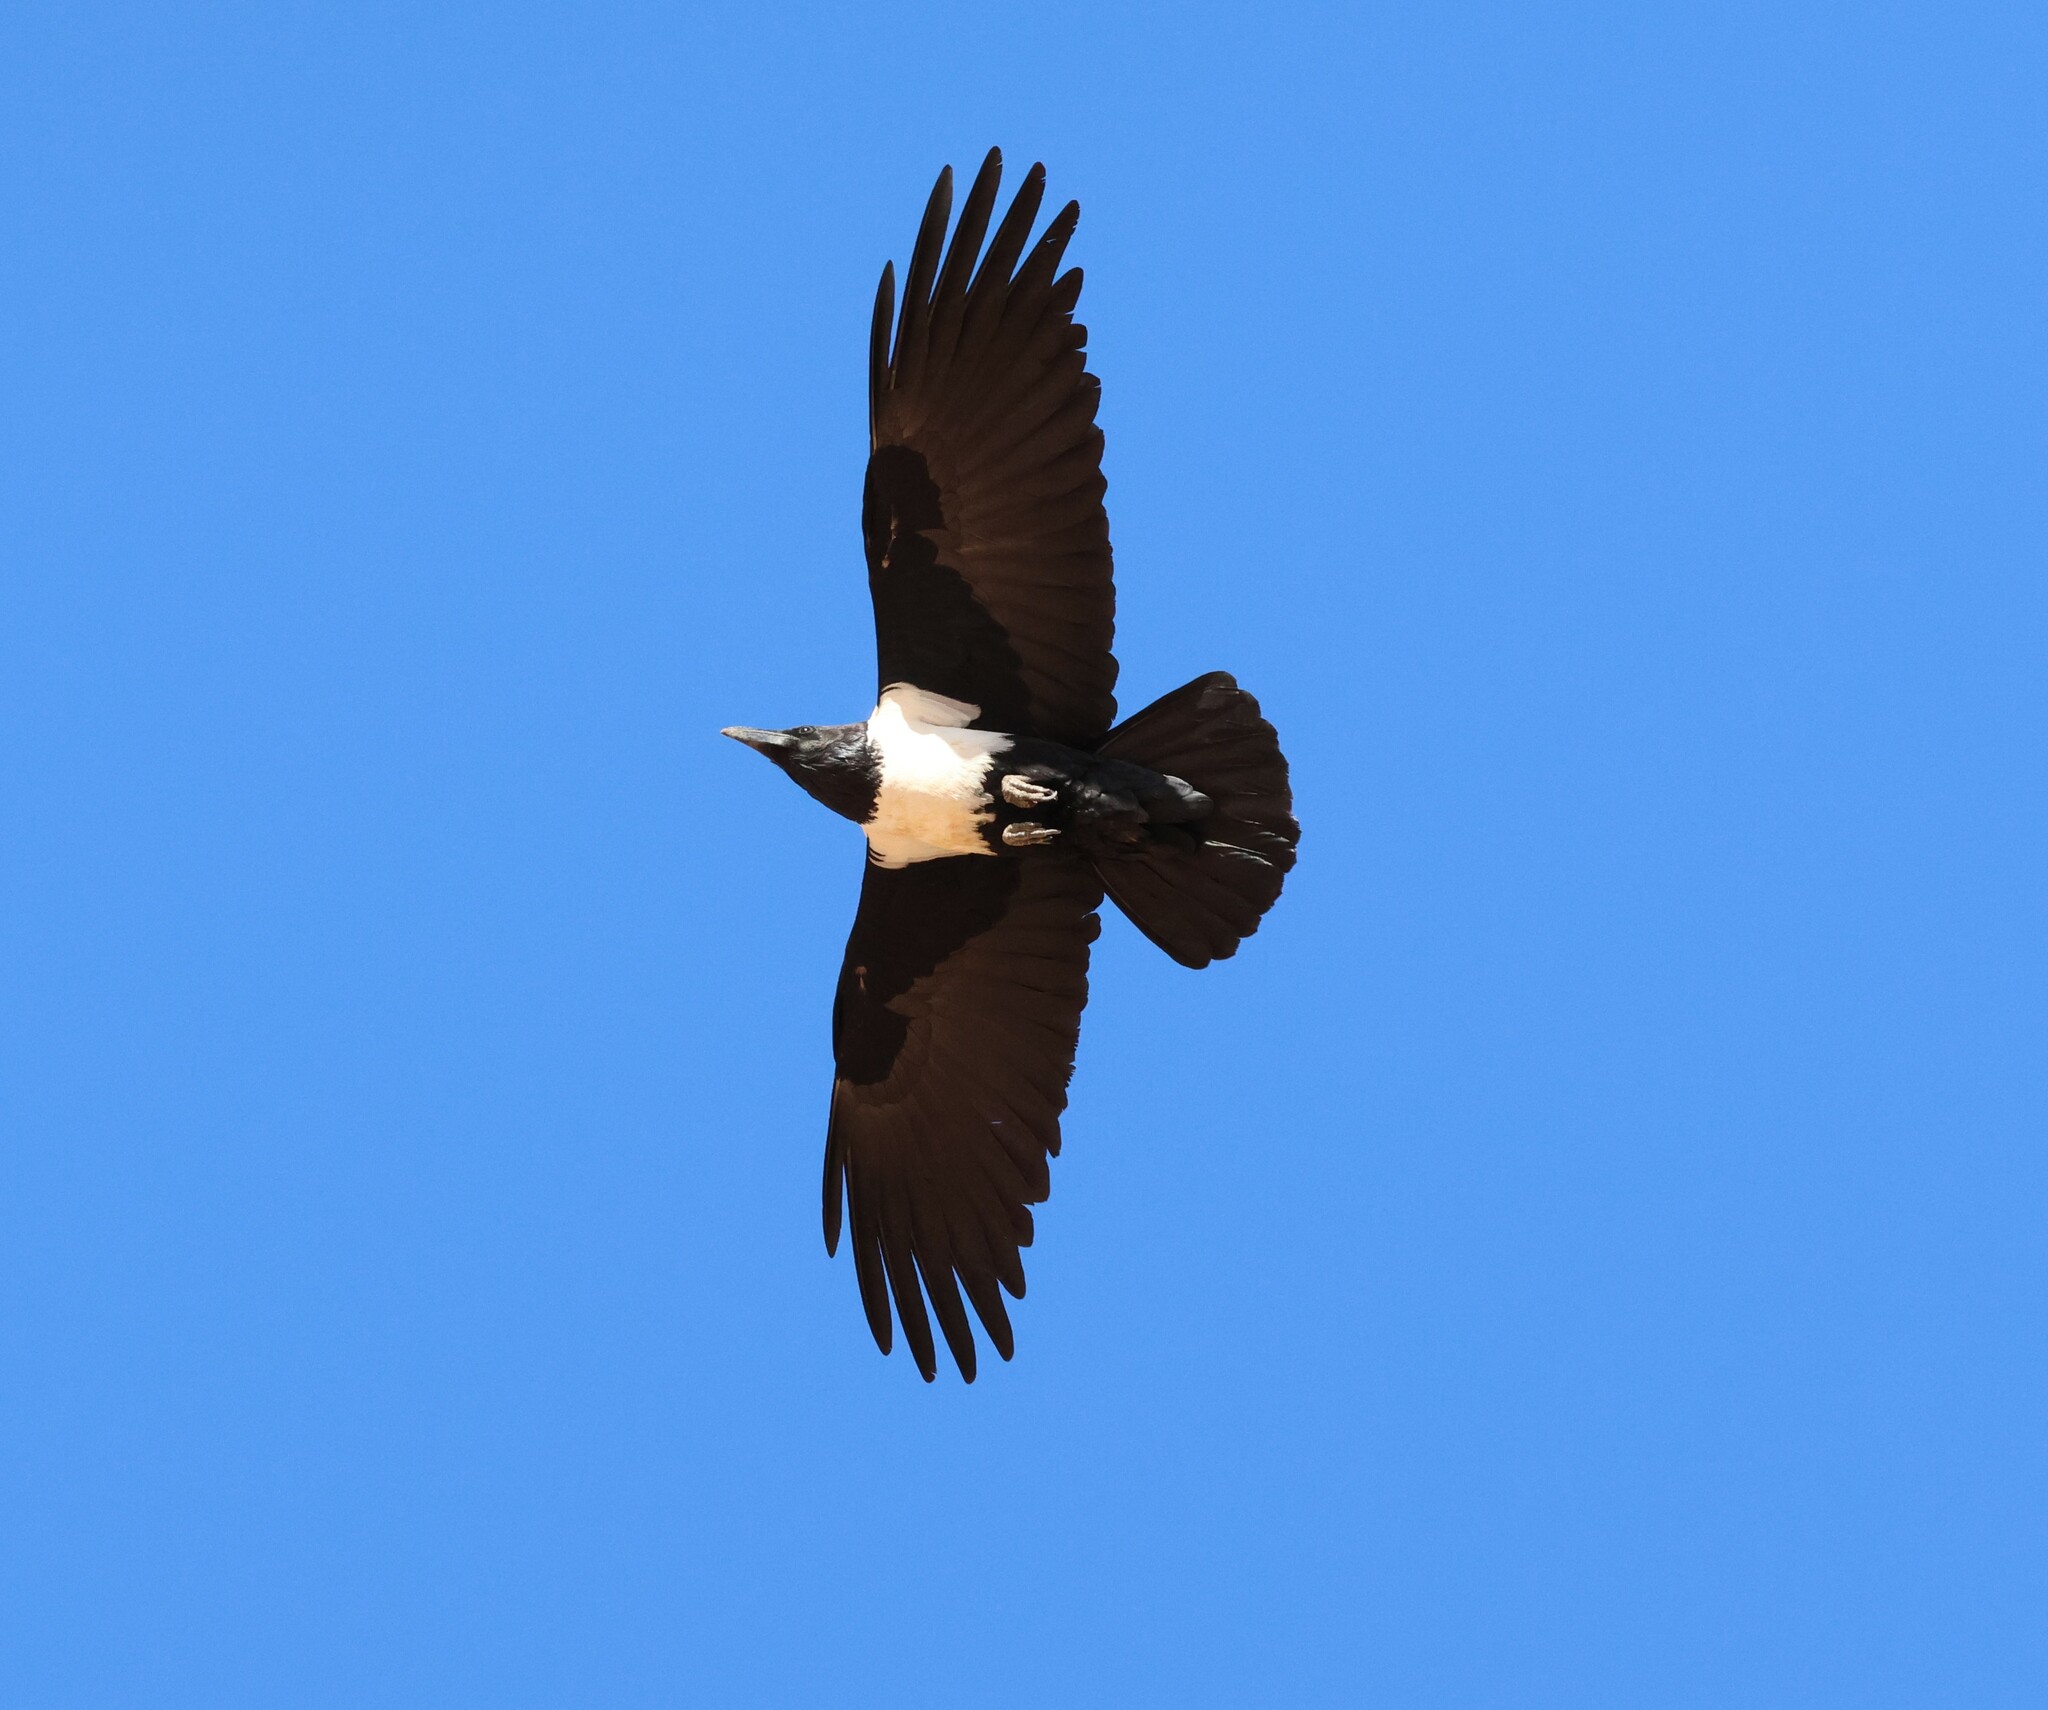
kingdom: Animalia
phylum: Chordata
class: Aves
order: Passeriformes
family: Corvidae
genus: Corvus
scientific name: Corvus albus
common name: Pied crow
